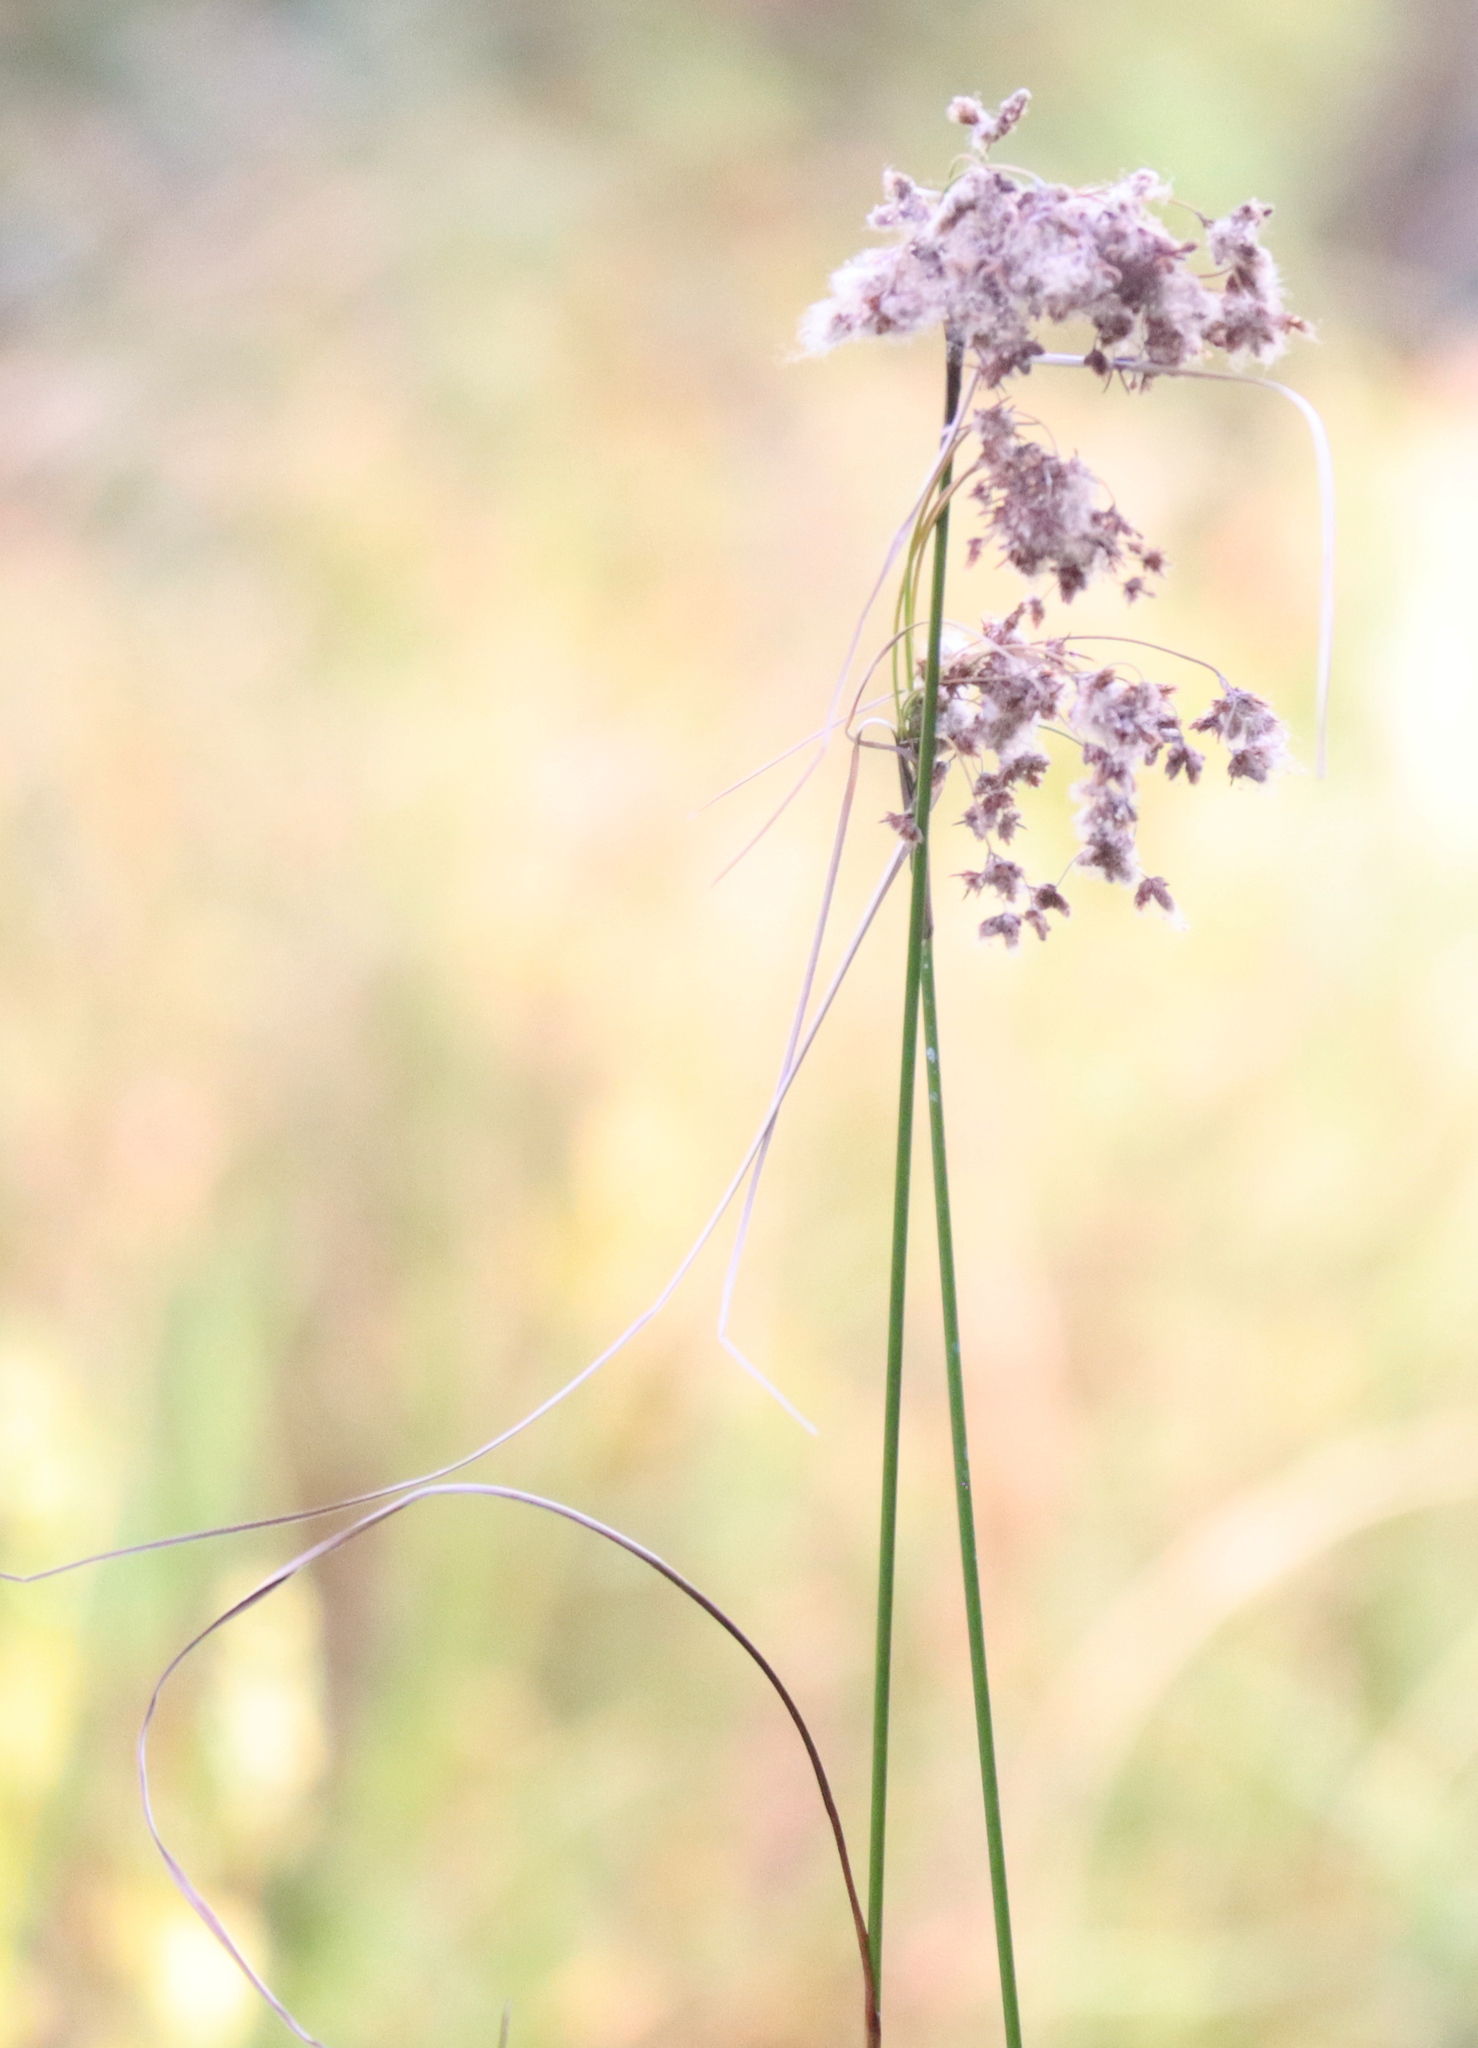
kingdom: Plantae
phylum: Tracheophyta
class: Liliopsida
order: Poales
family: Cyperaceae
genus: Scirpus
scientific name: Scirpus cyperinus
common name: Black-sheathed bulrush
